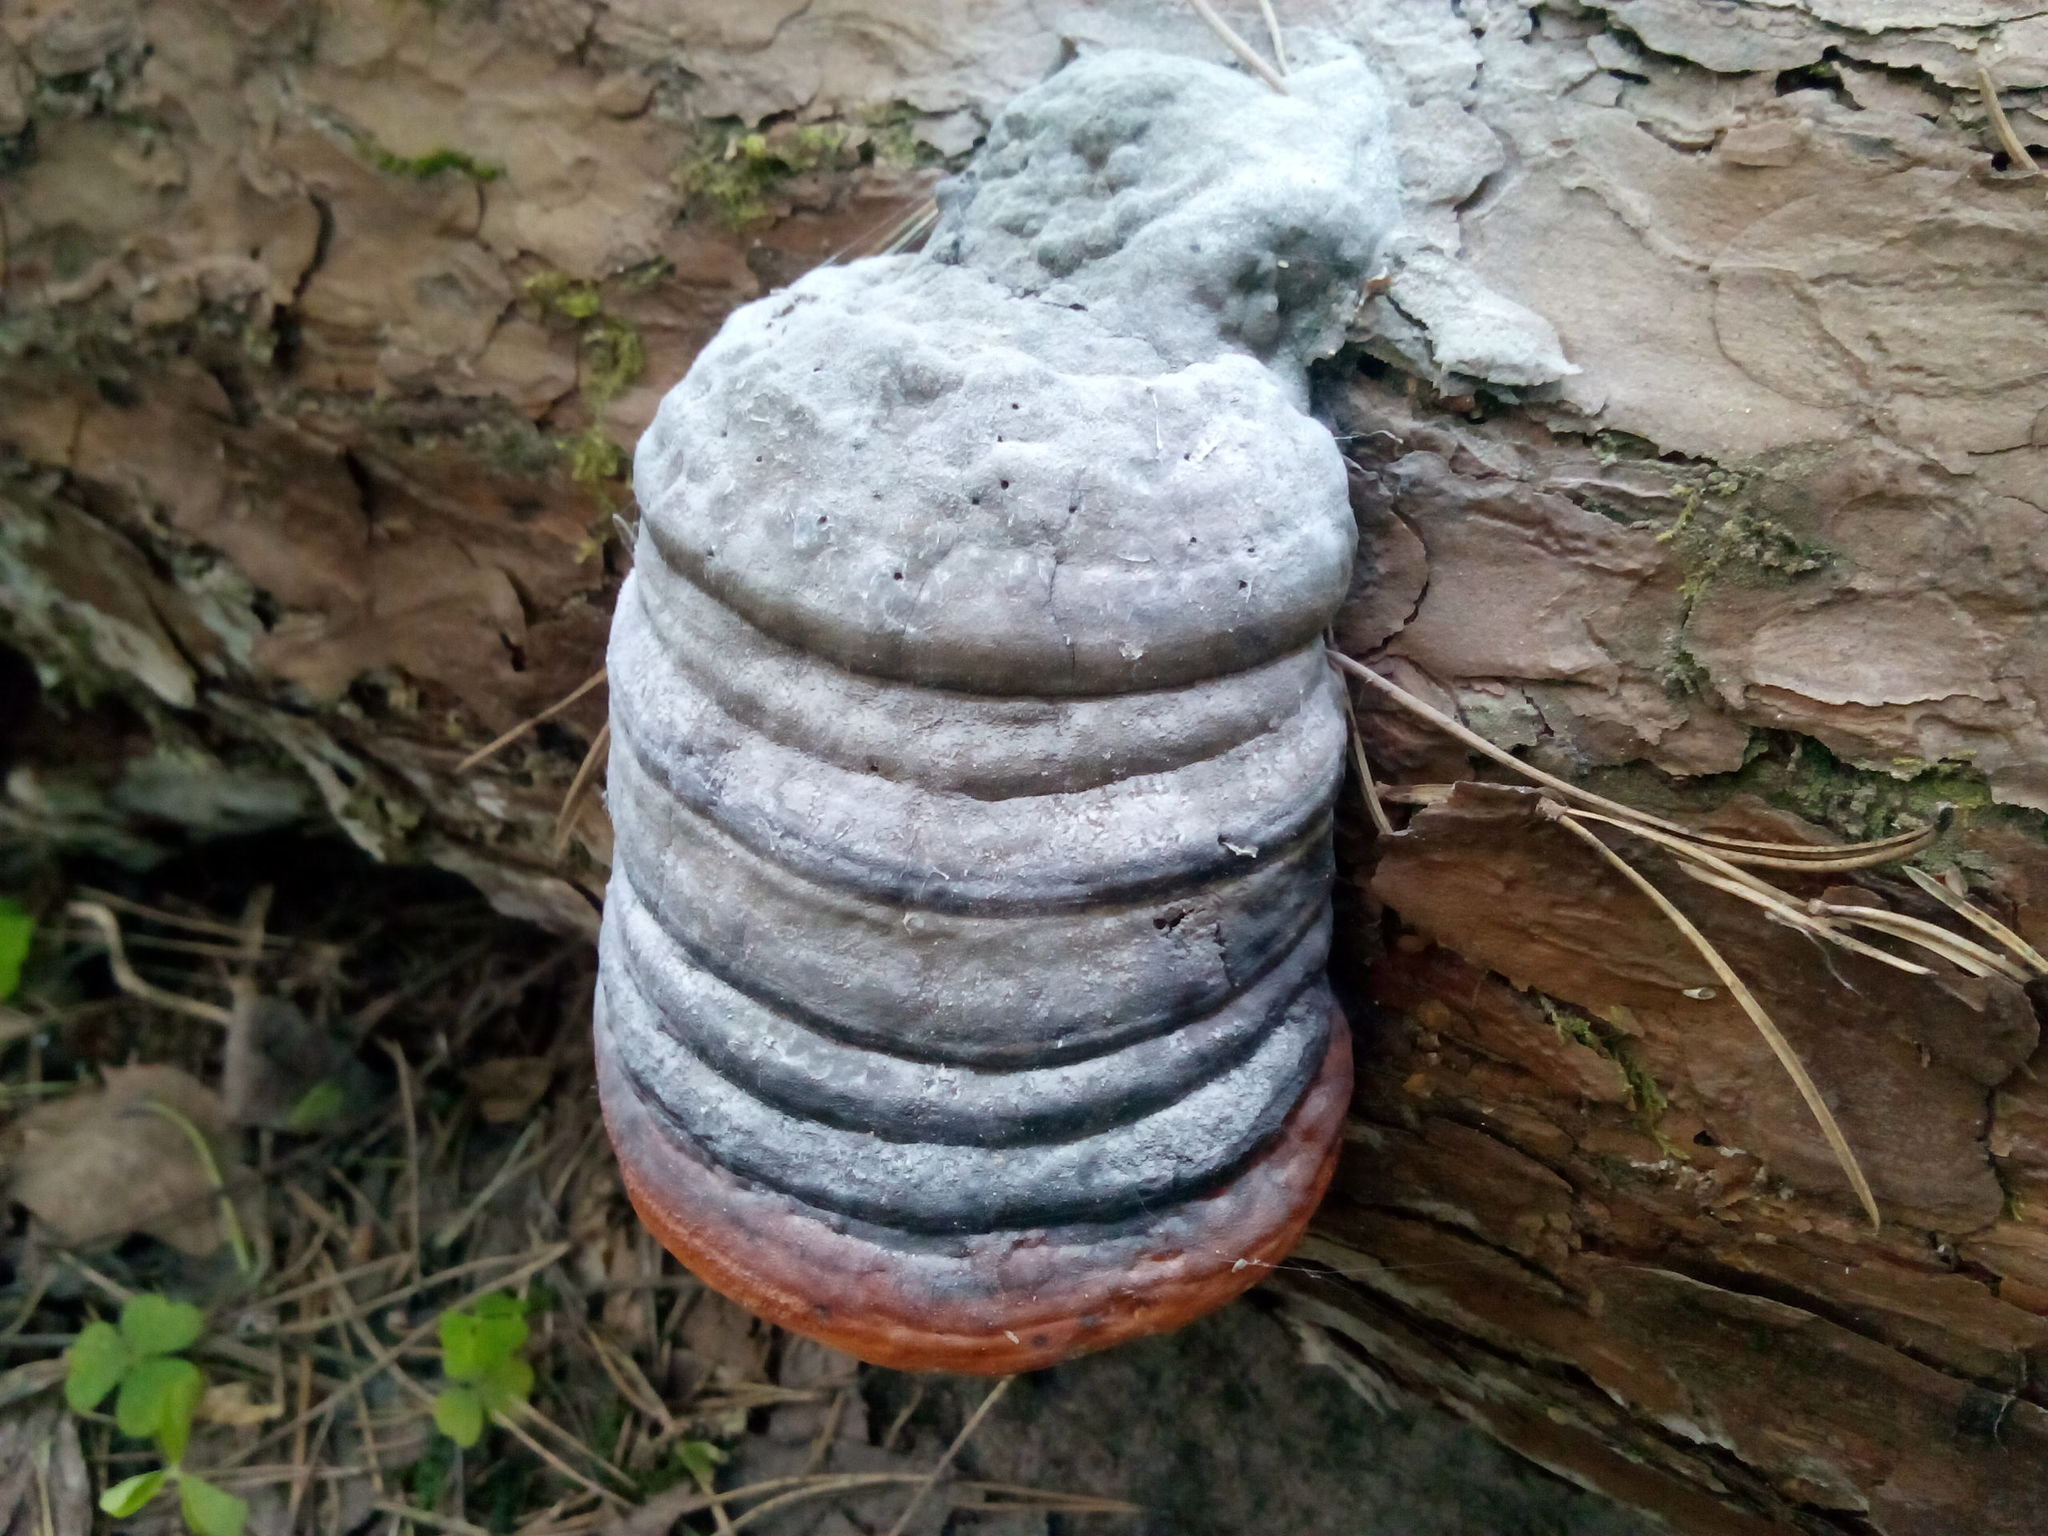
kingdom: Fungi
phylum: Basidiomycota
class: Agaricomycetes
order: Polyporales
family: Fomitopsidaceae
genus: Fomitopsis
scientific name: Fomitopsis pinicola
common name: Red-belted bracket
